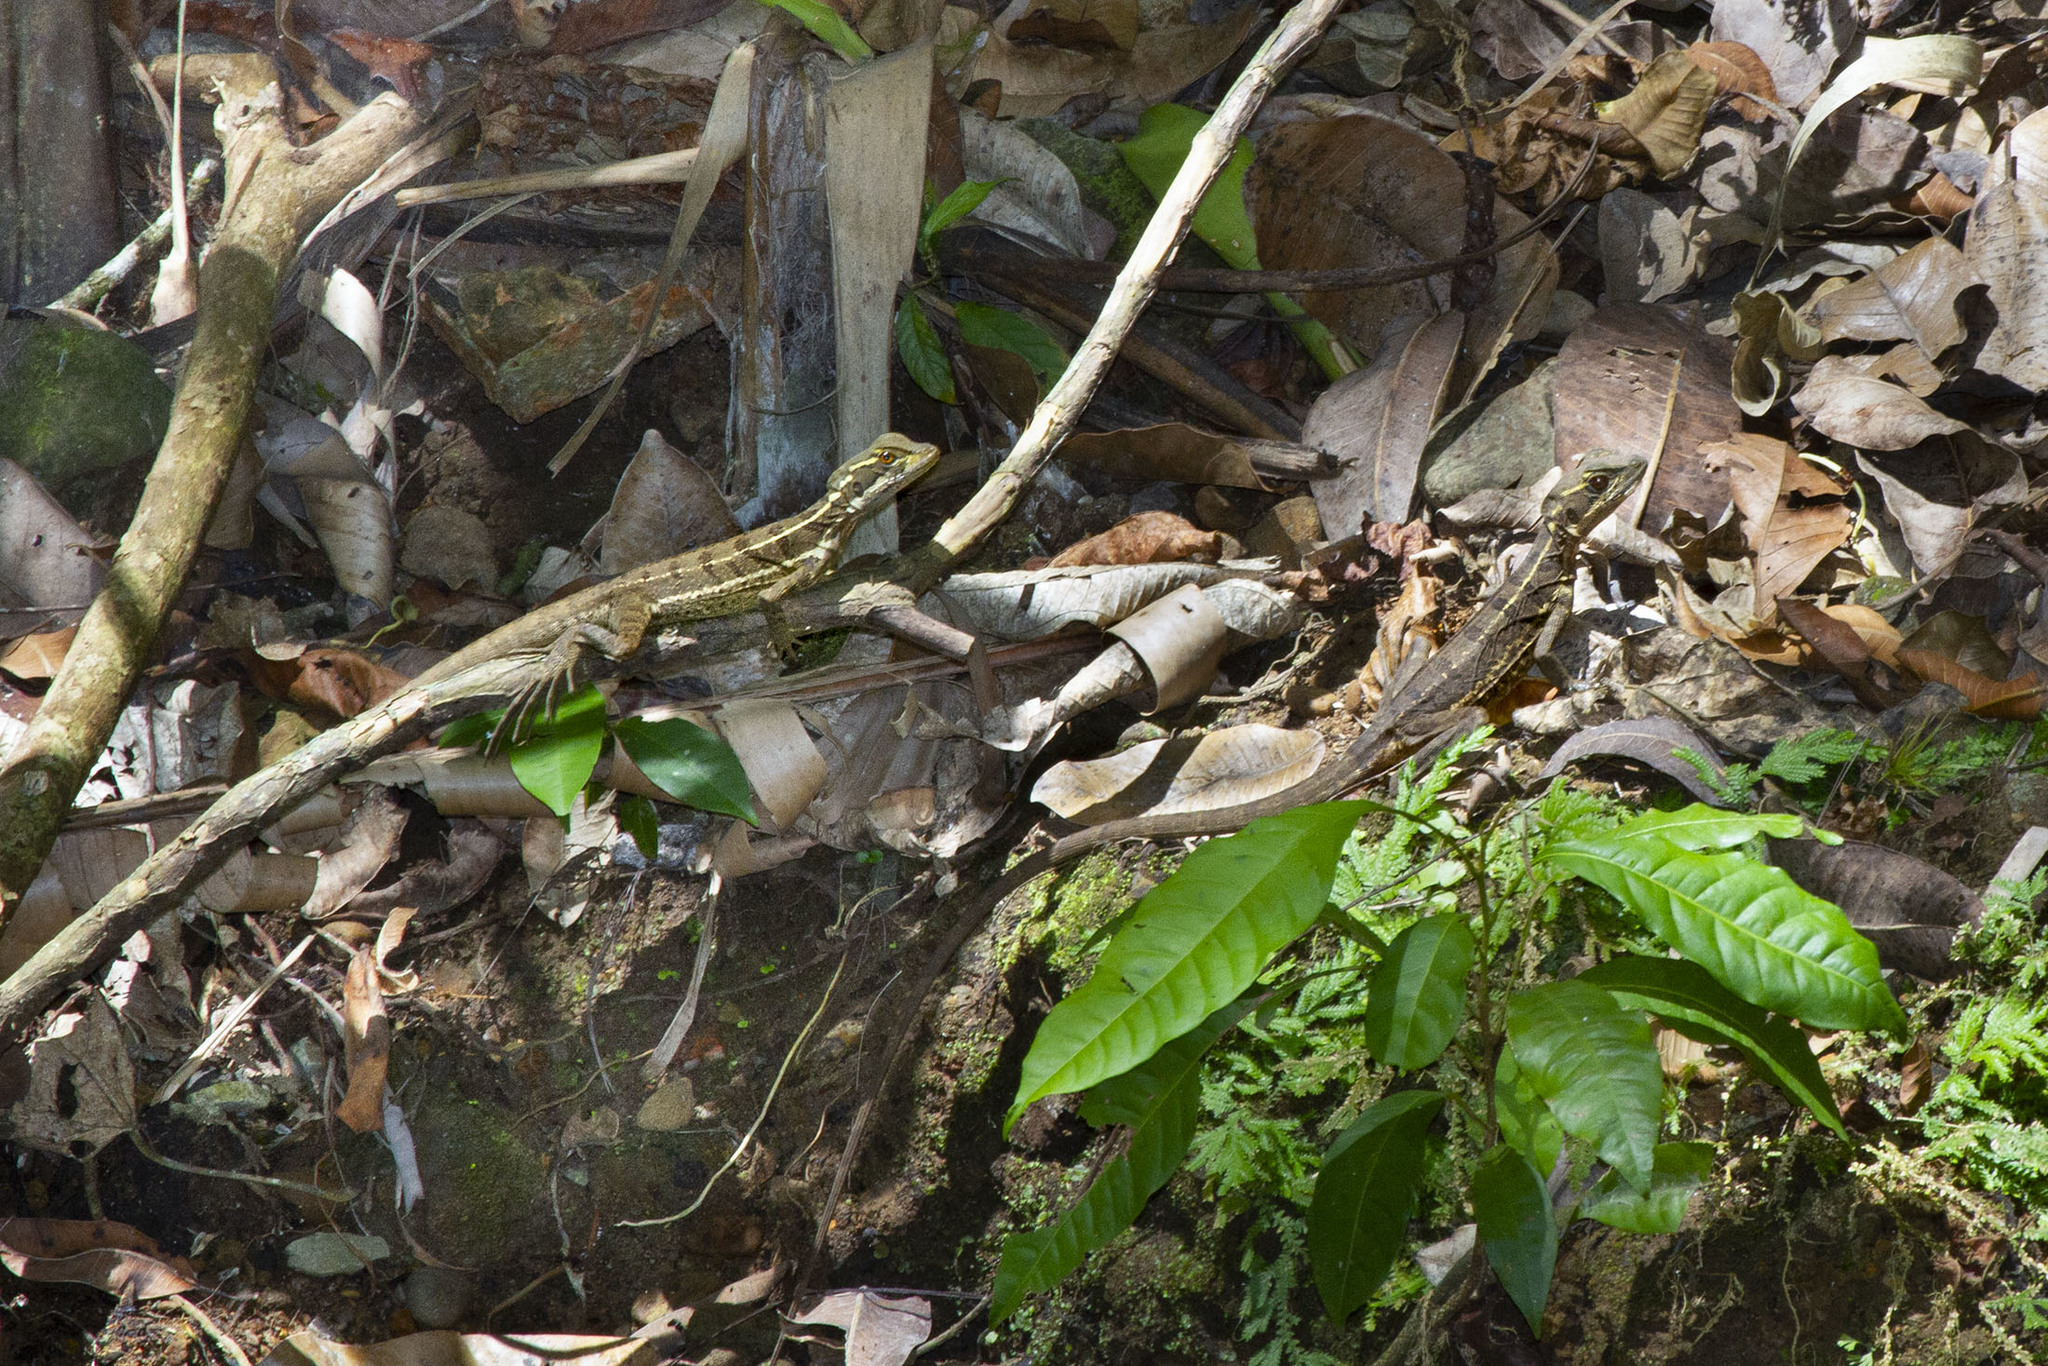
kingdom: Animalia
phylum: Chordata
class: Squamata
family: Corytophanidae
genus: Basiliscus
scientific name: Basiliscus basiliscus
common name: Common basilisk
